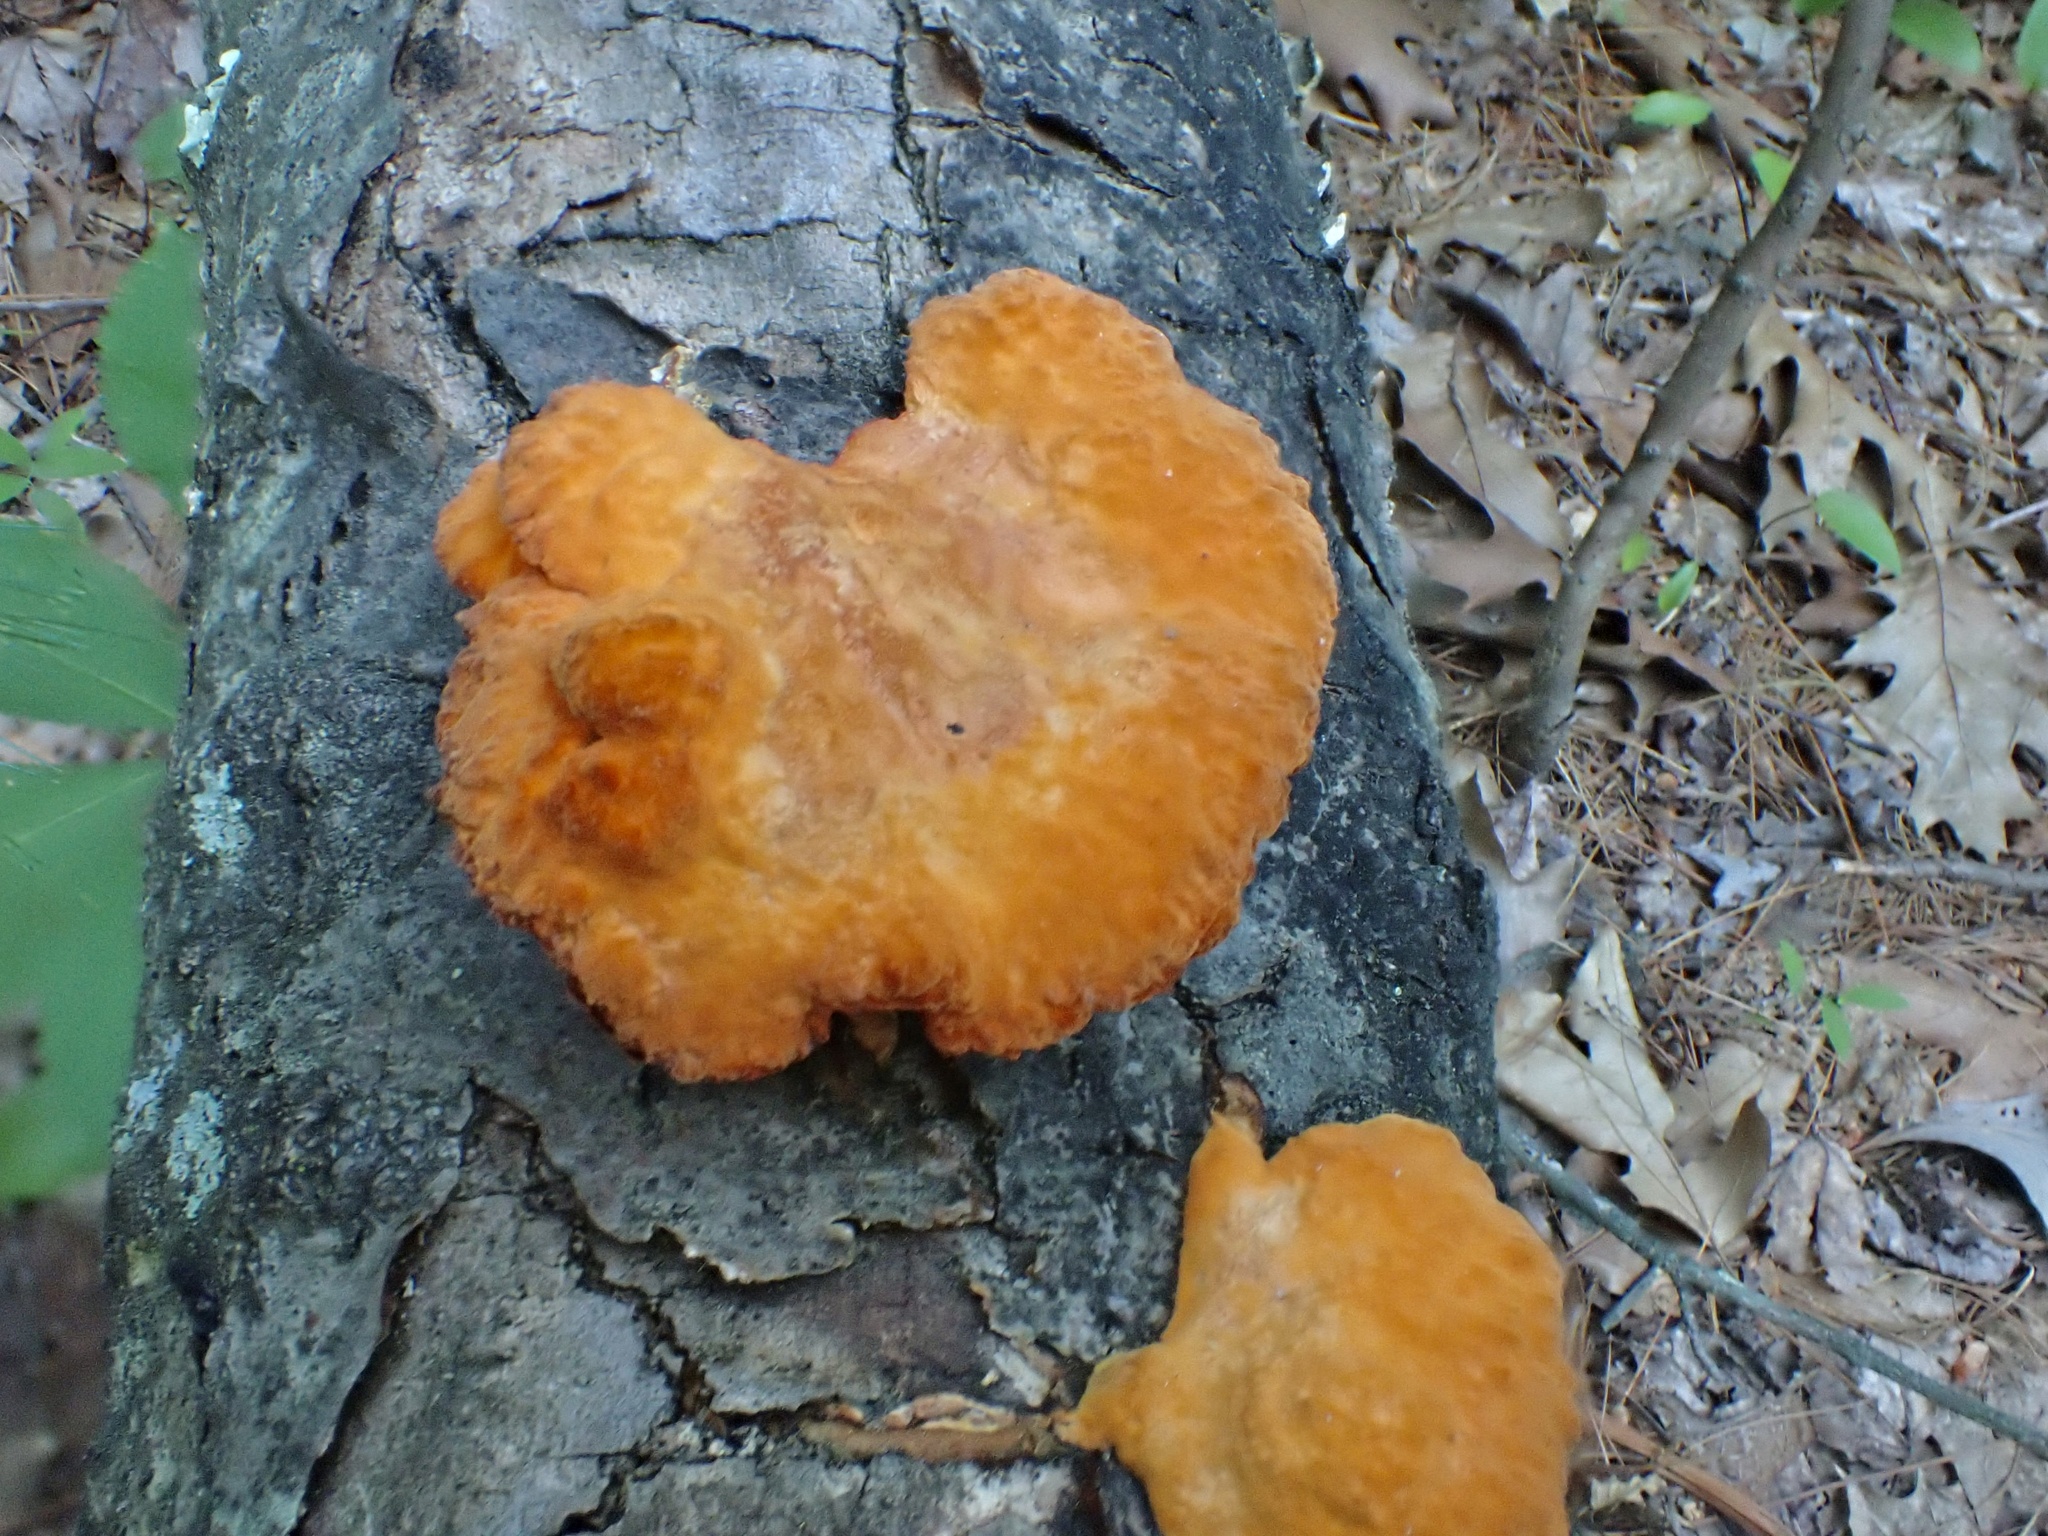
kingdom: Fungi
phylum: Basidiomycota
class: Agaricomycetes
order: Polyporales
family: Polyporaceae
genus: Trametes
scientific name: Trametes cinnabarina
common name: Northern cinnabar polypore
